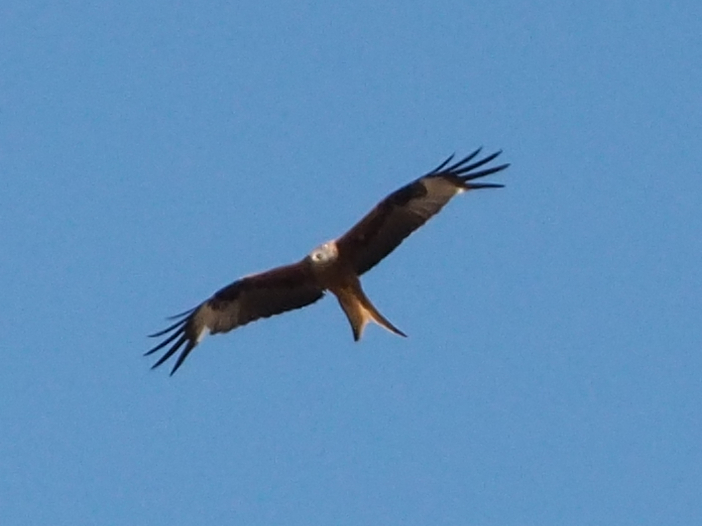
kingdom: Animalia
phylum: Chordata
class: Aves
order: Accipitriformes
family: Accipitridae
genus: Milvus
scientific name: Milvus milvus
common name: Red kite
